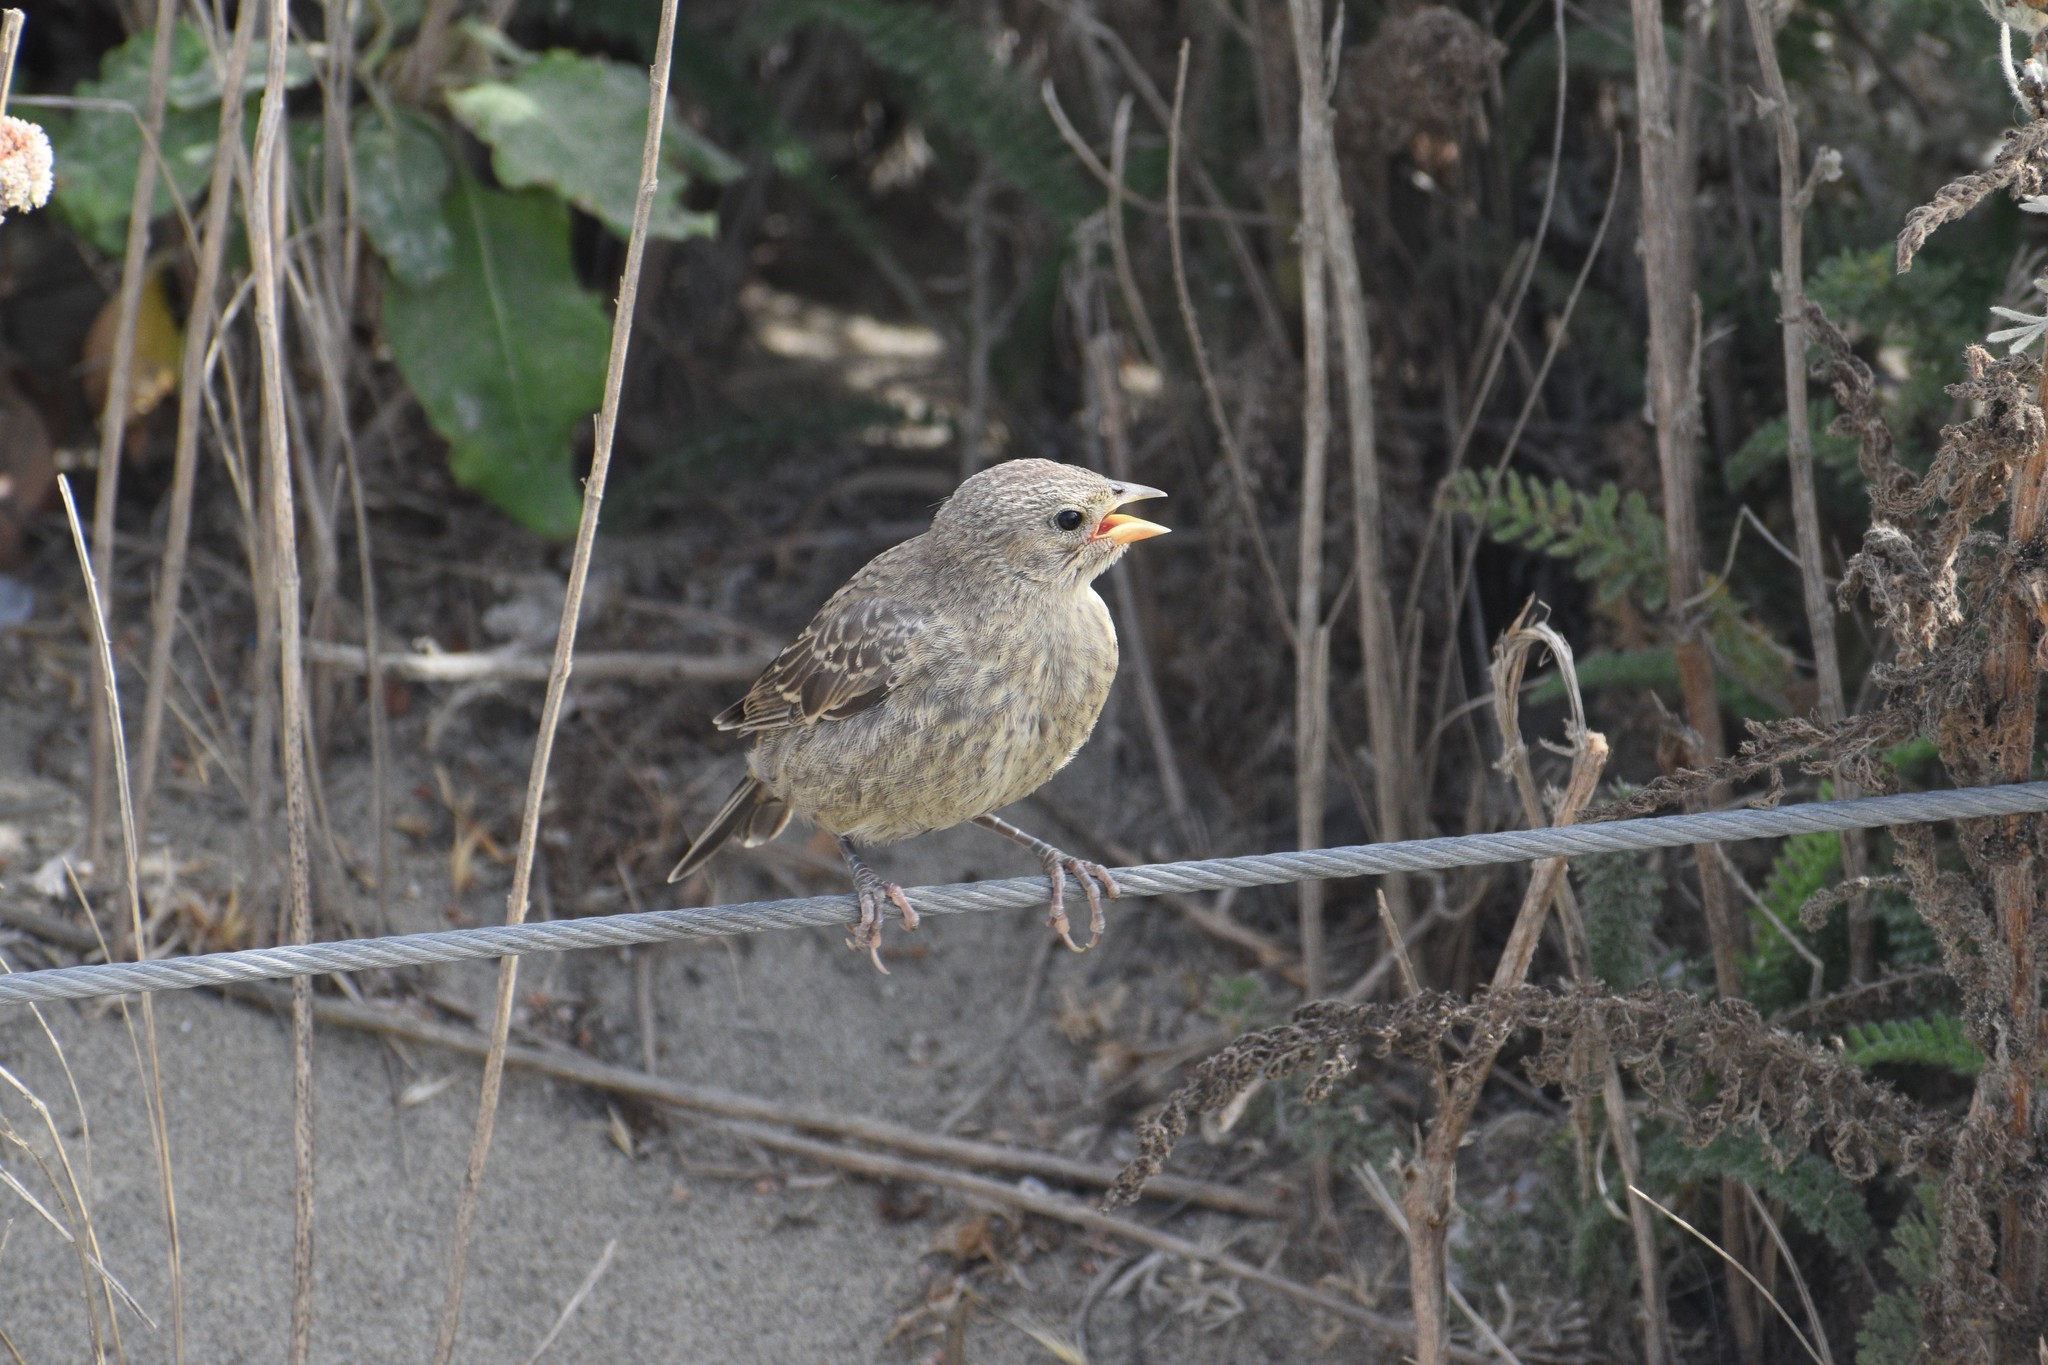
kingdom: Animalia
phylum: Chordata
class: Aves
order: Passeriformes
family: Icteridae
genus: Molothrus
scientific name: Molothrus ater
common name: Brown-headed cowbird
